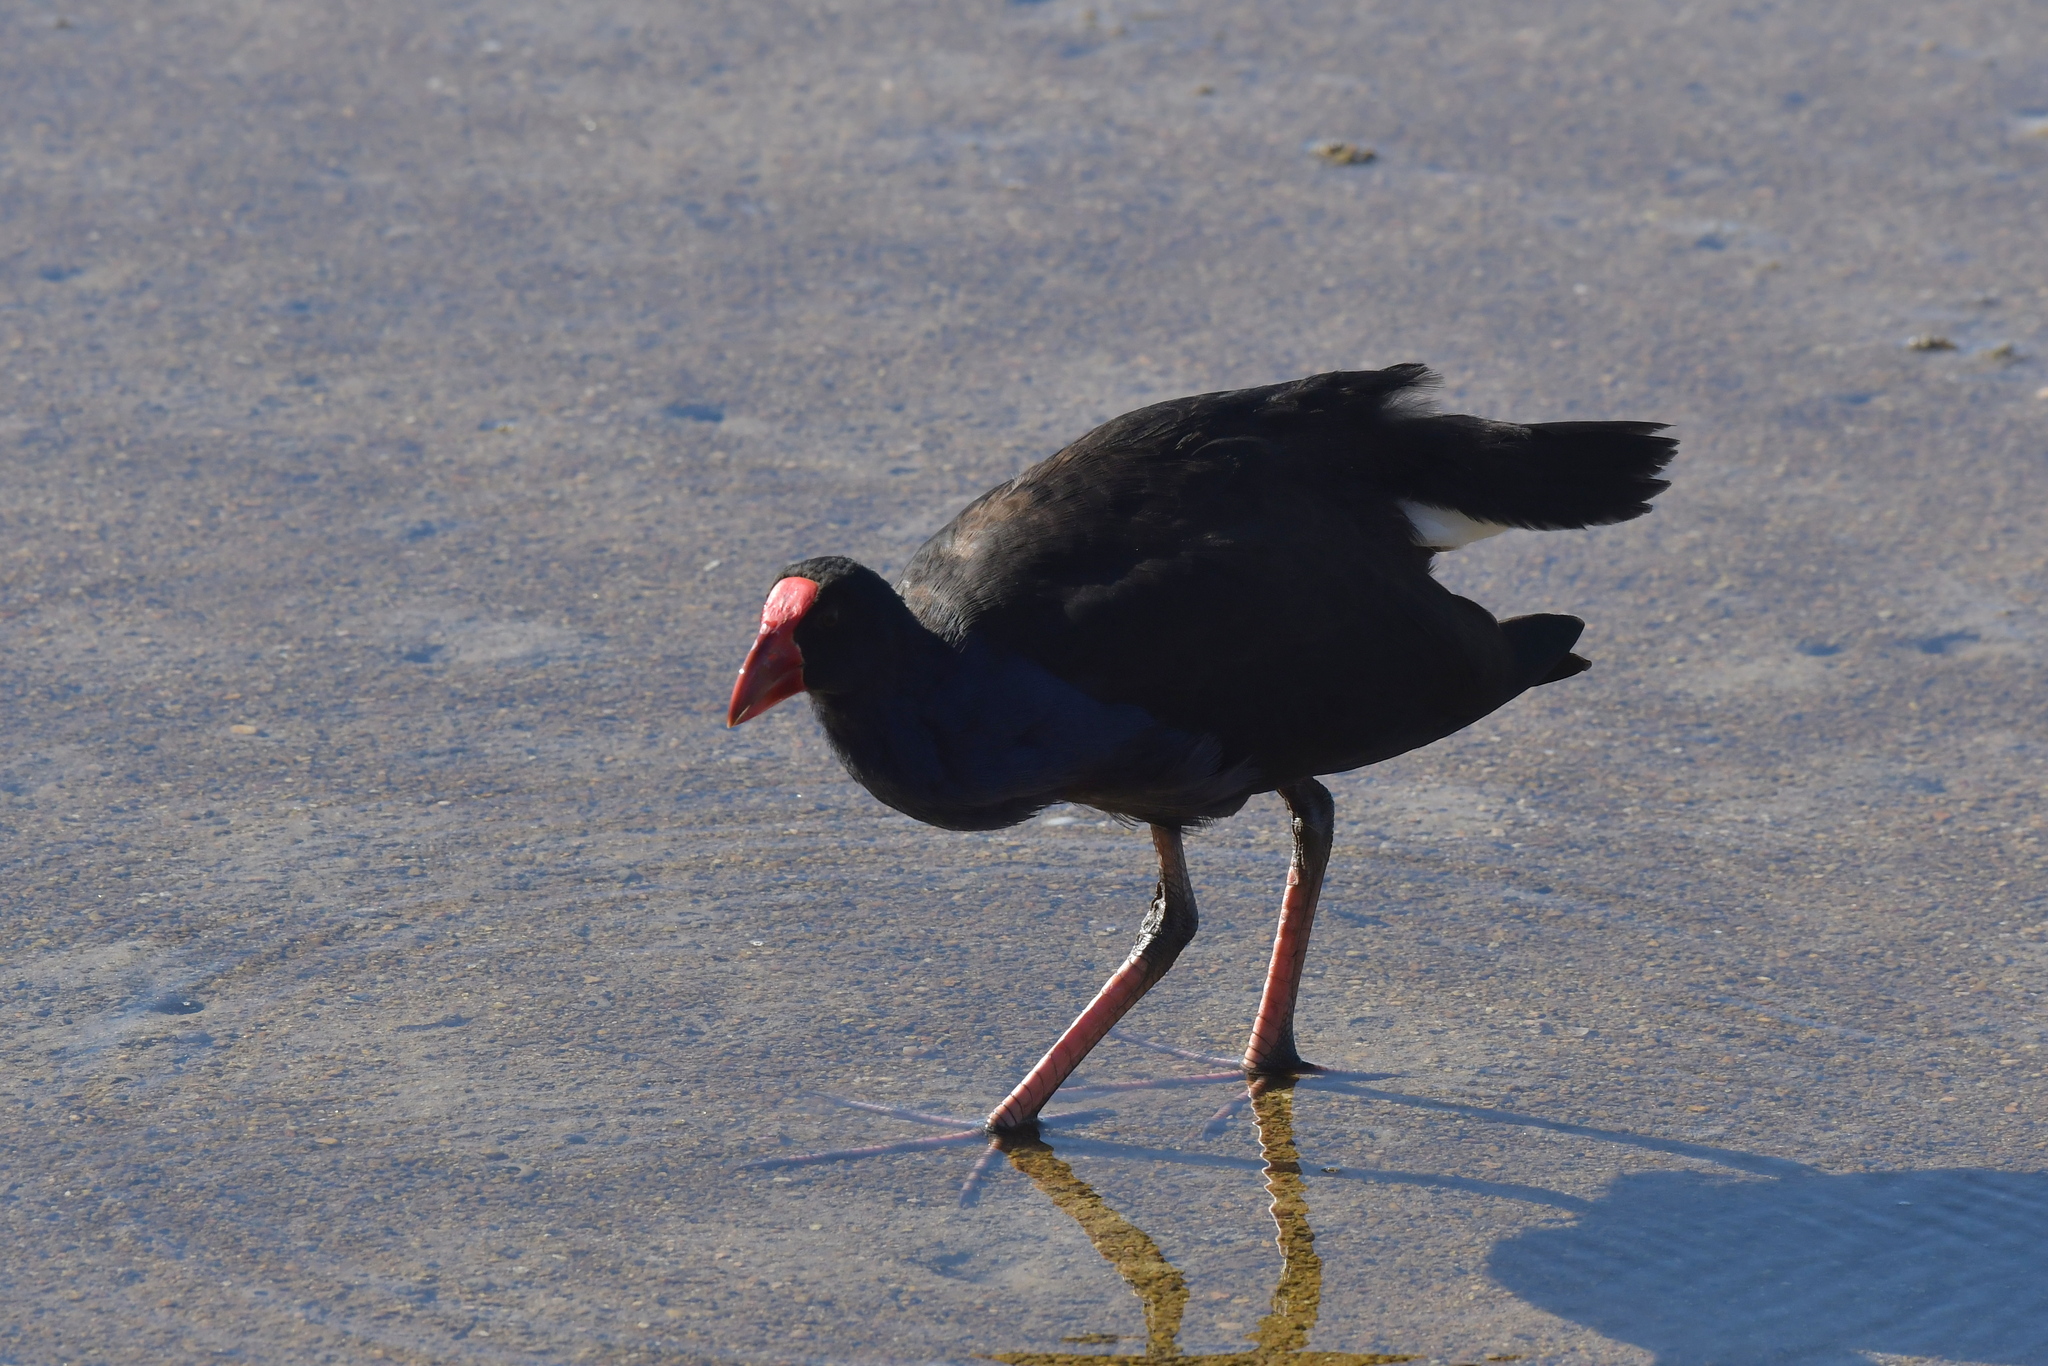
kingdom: Animalia
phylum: Chordata
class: Aves
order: Gruiformes
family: Rallidae
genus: Porphyrio
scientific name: Porphyrio melanotus
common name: Australasian swamphen
